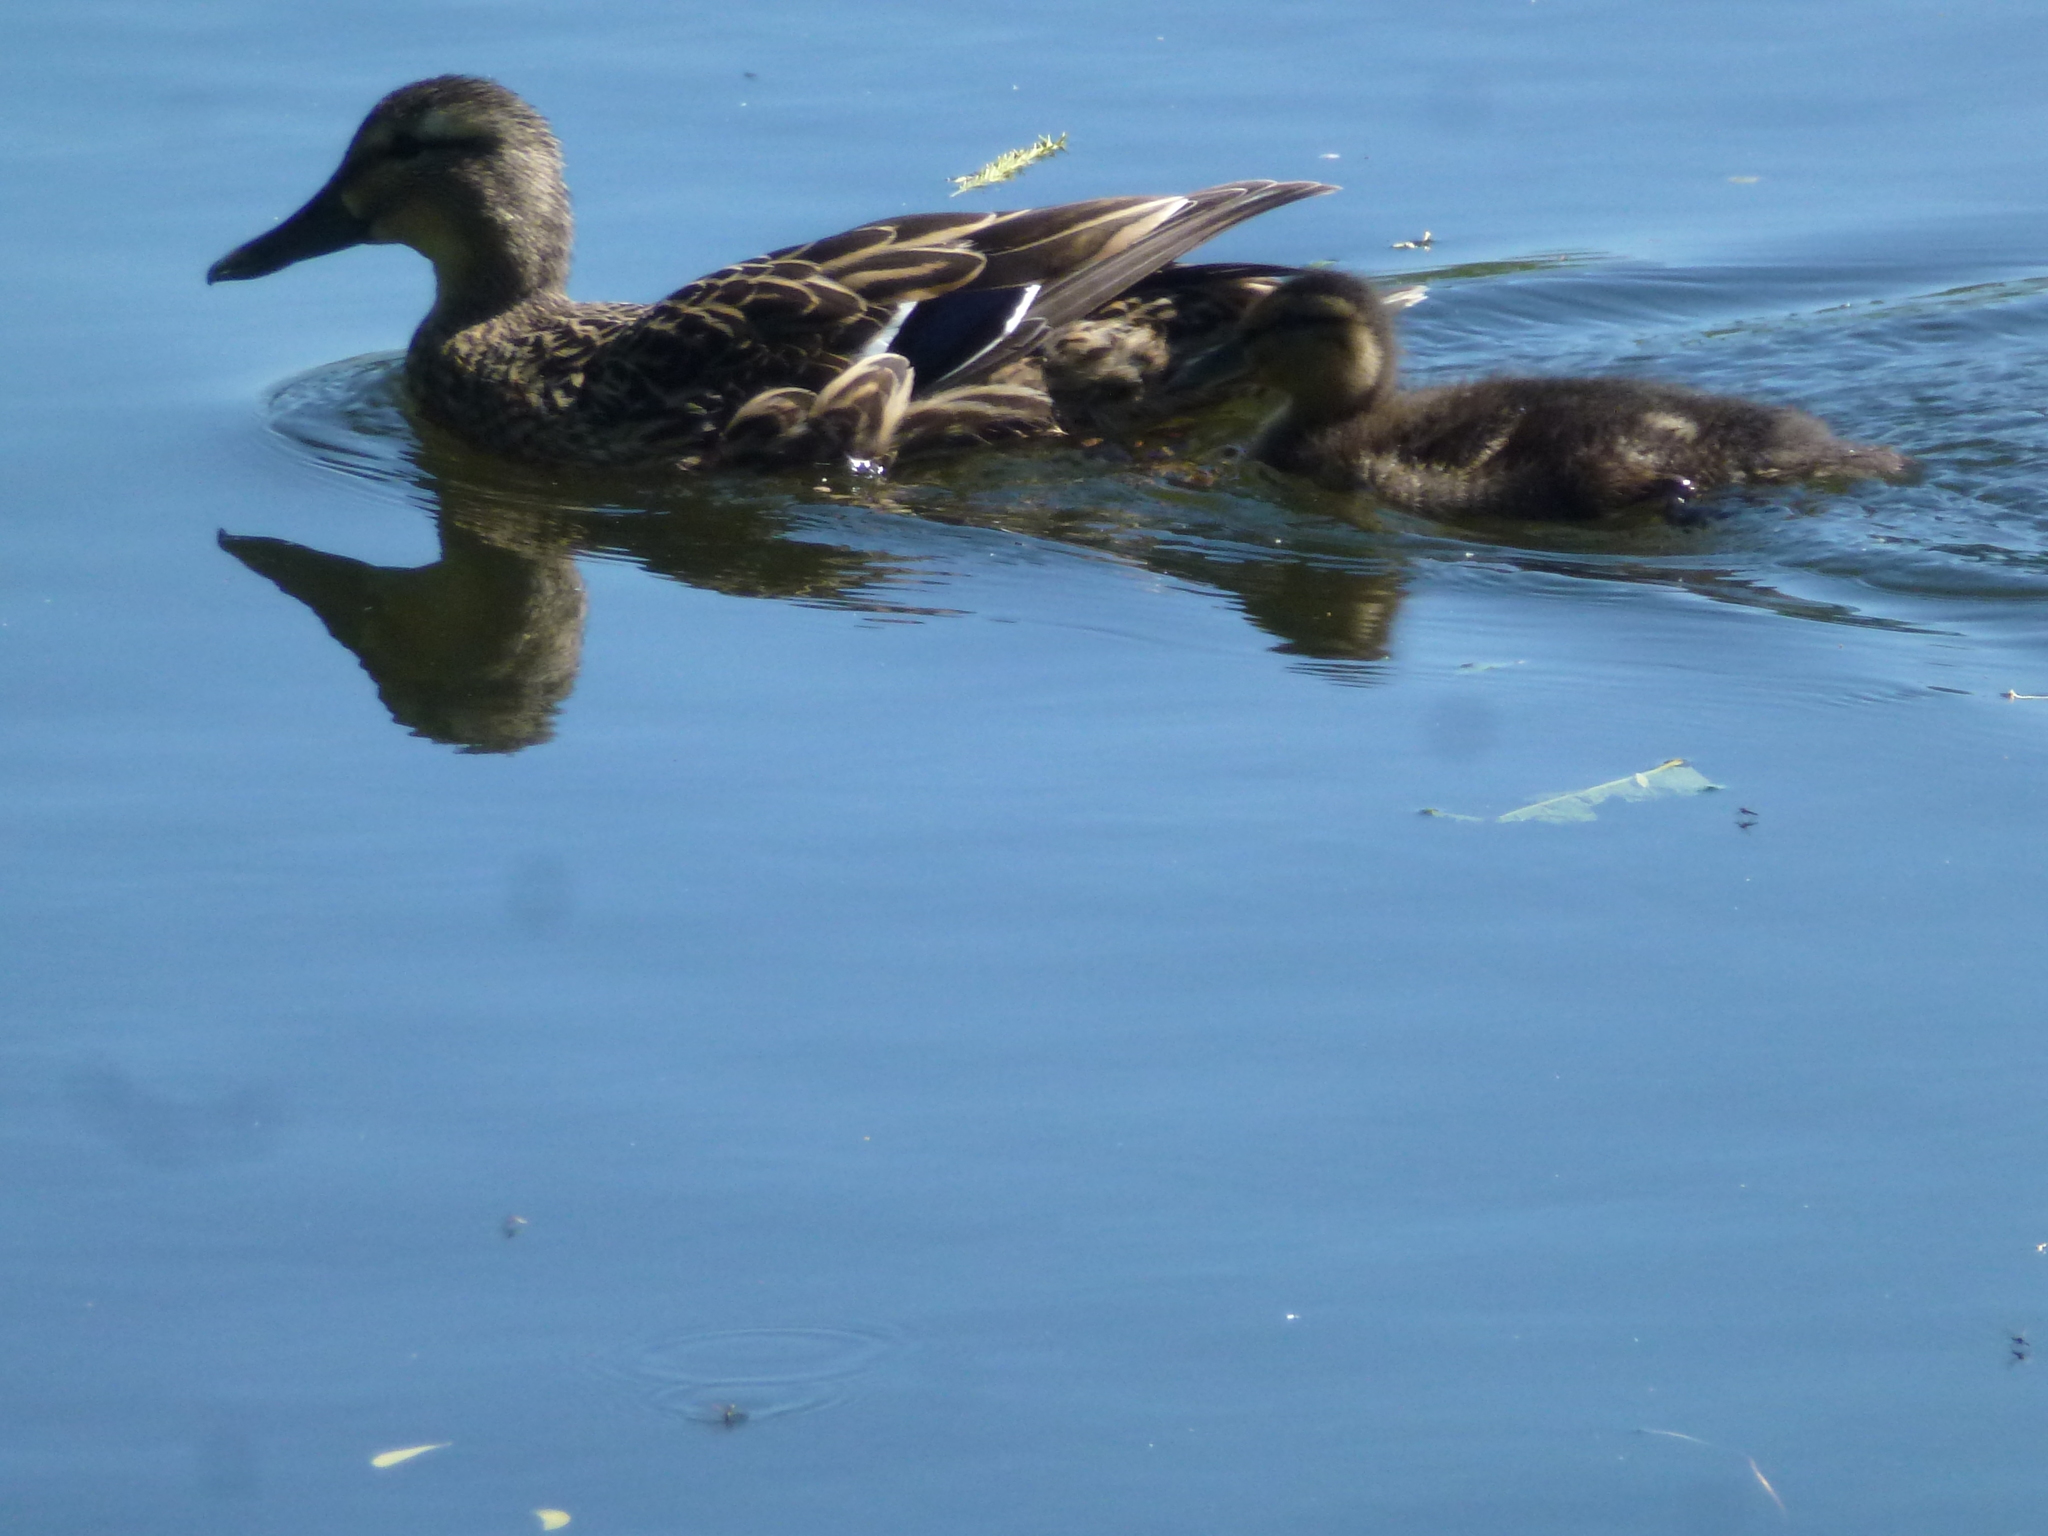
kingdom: Animalia
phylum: Chordata
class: Aves
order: Anseriformes
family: Anatidae
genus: Anas
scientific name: Anas platyrhynchos
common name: Mallard
